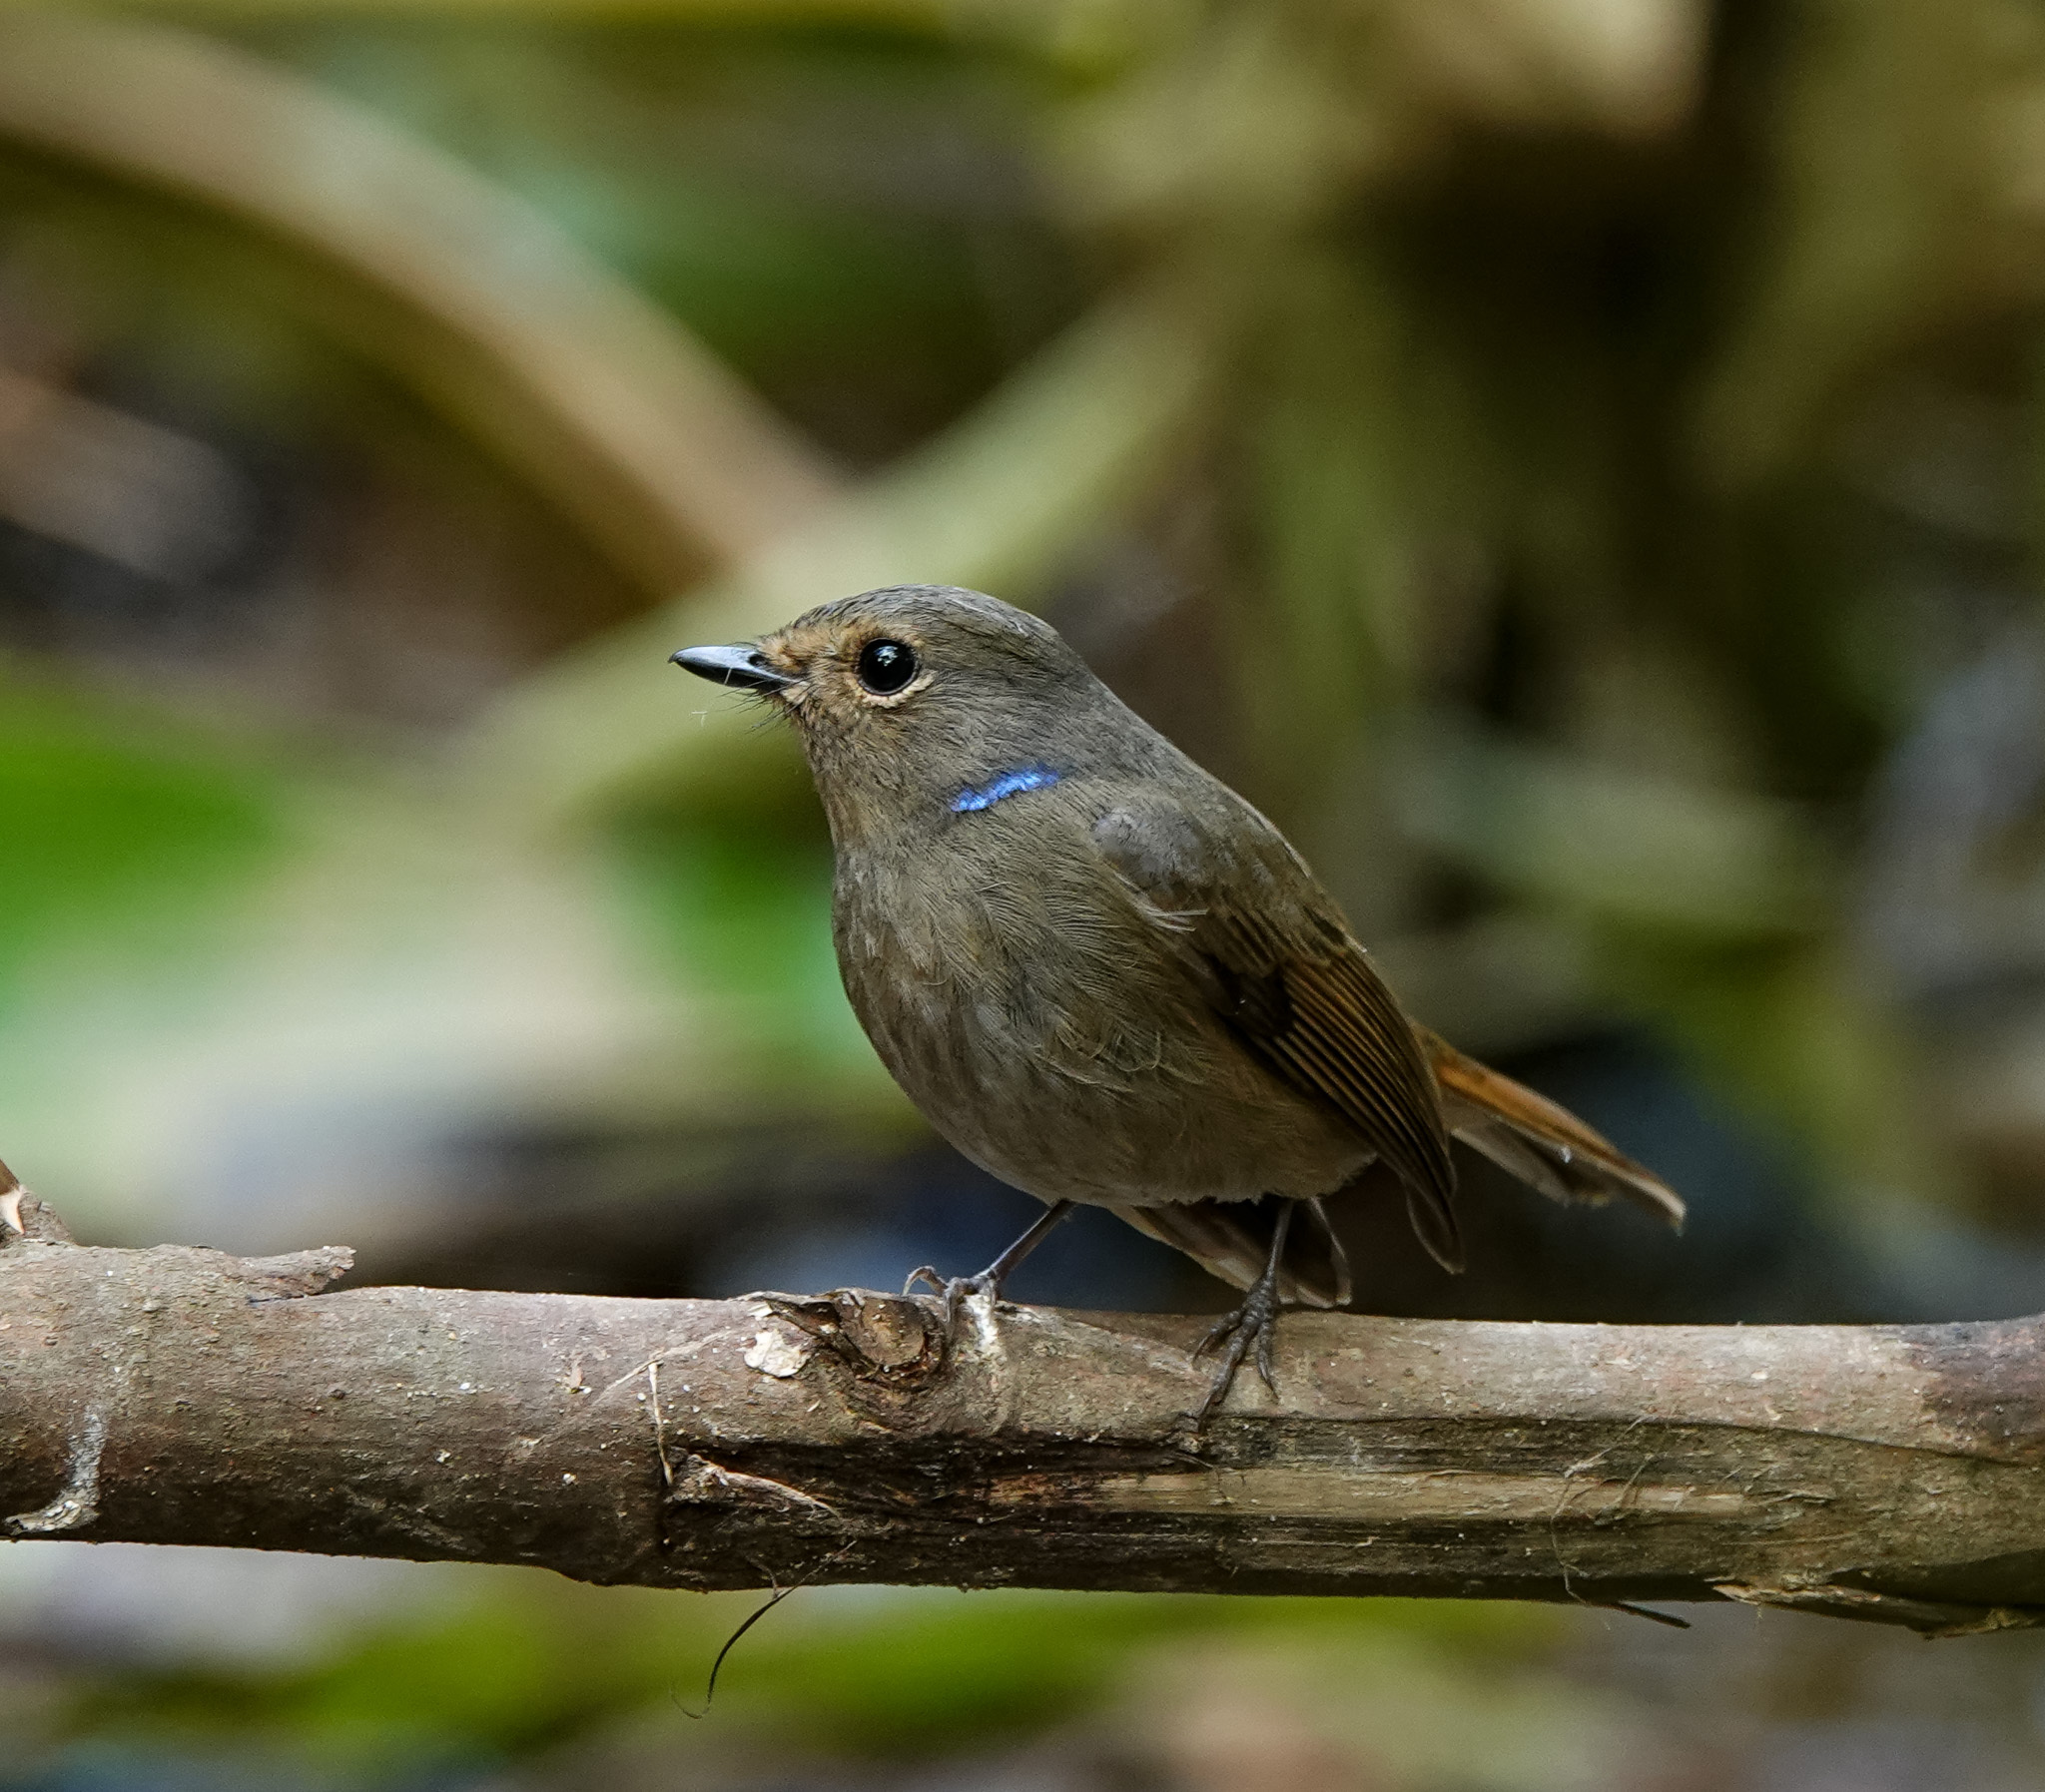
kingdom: Animalia
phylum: Chordata
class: Aves
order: Passeriformes
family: Muscicapidae
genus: Niltava
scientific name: Niltava macgrigoriae
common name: Small niltava
